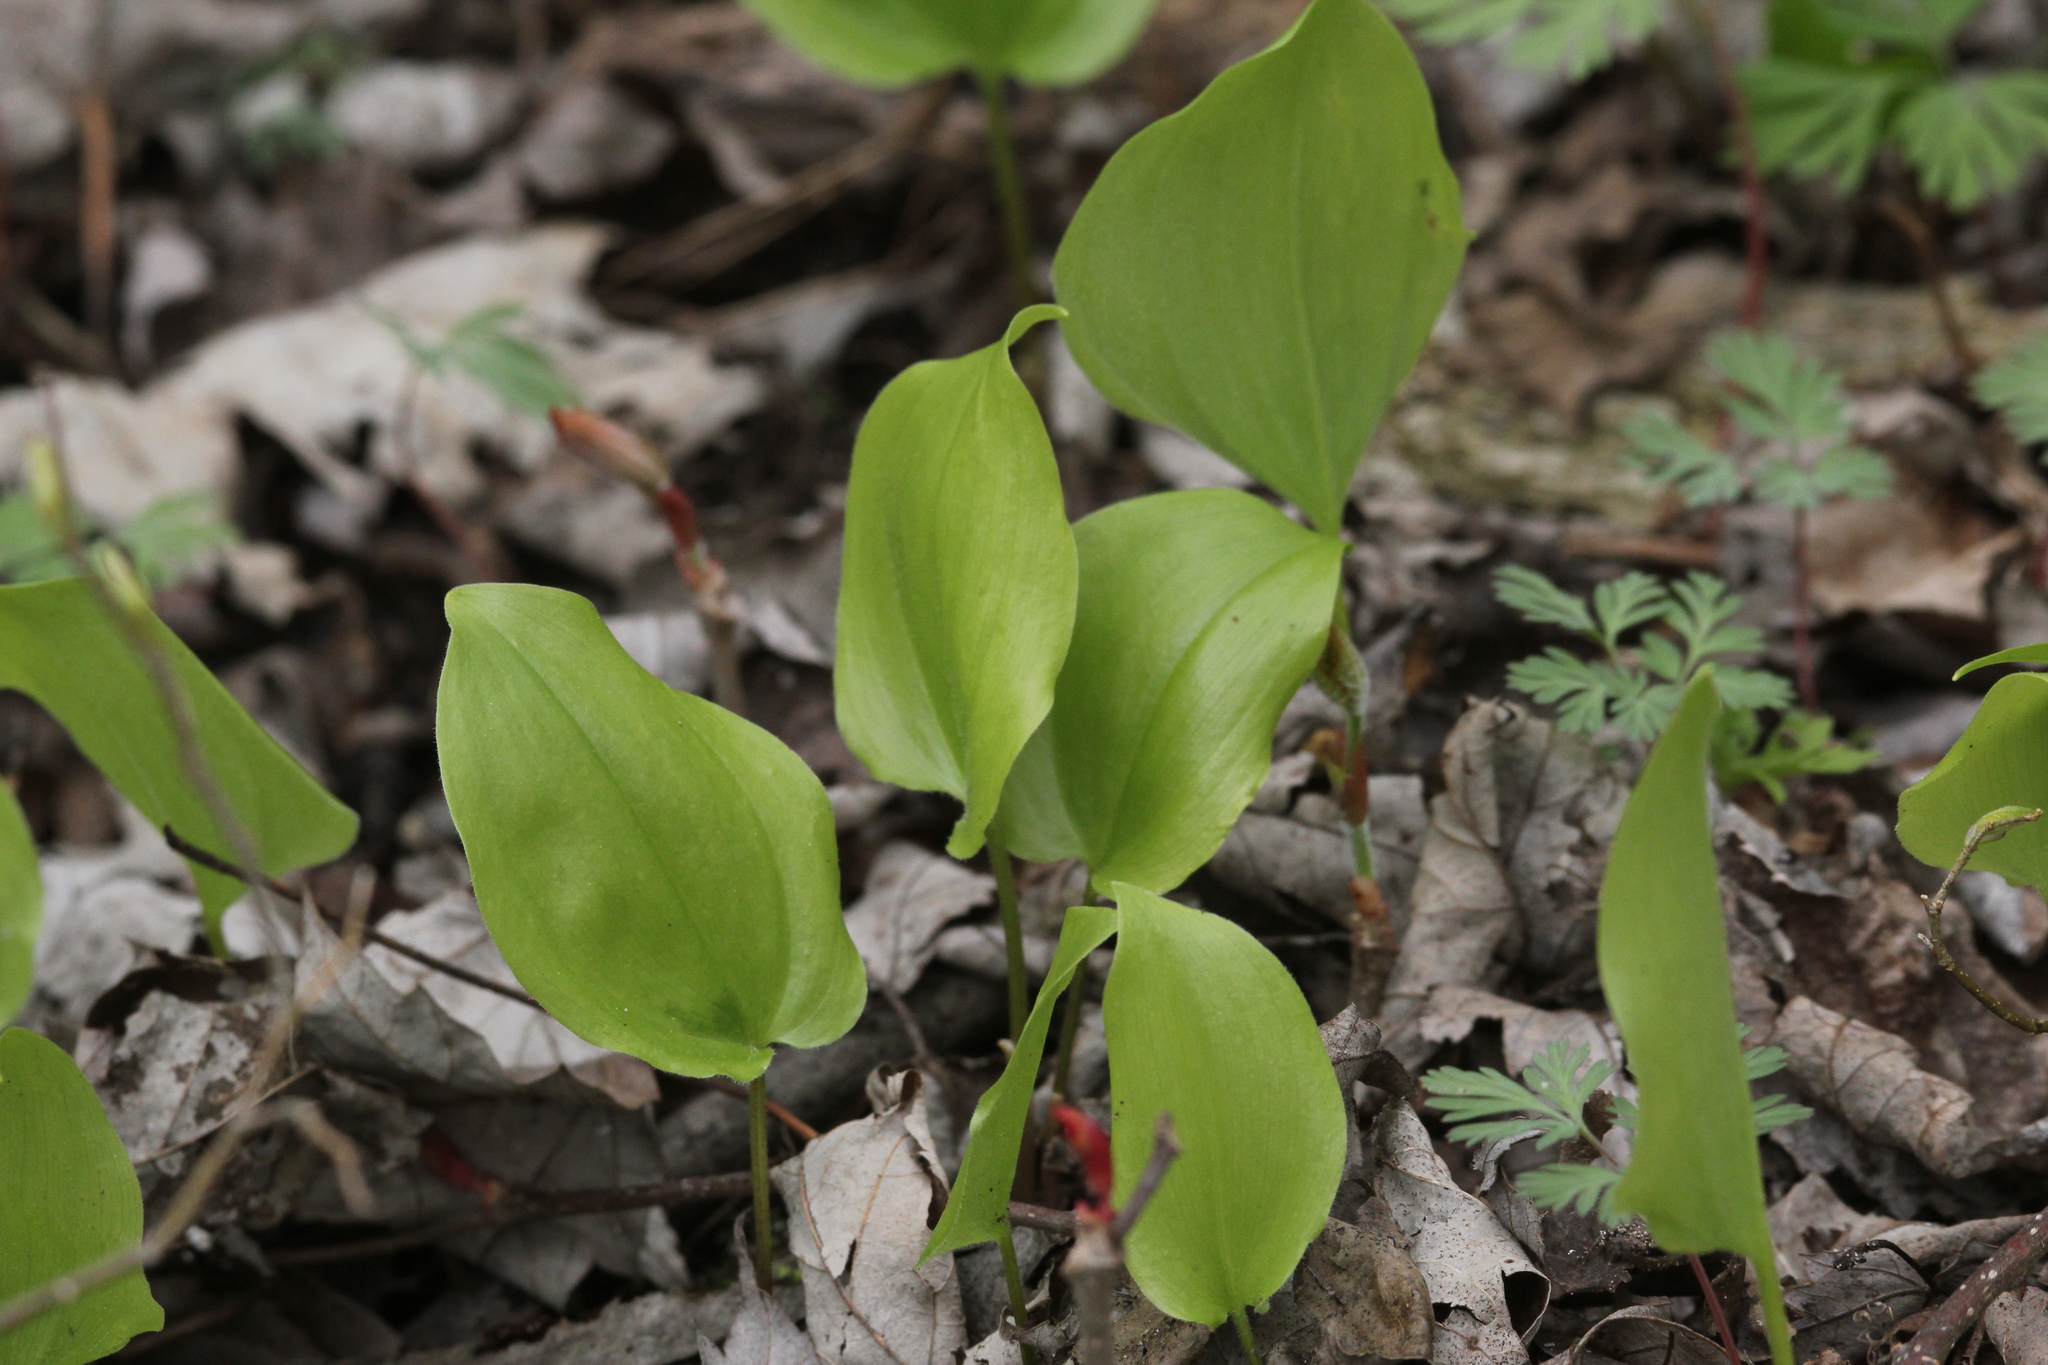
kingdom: Plantae
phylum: Tracheophyta
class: Liliopsida
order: Asparagales
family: Asparagaceae
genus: Maianthemum
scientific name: Maianthemum canadense
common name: False lily-of-the-valley
